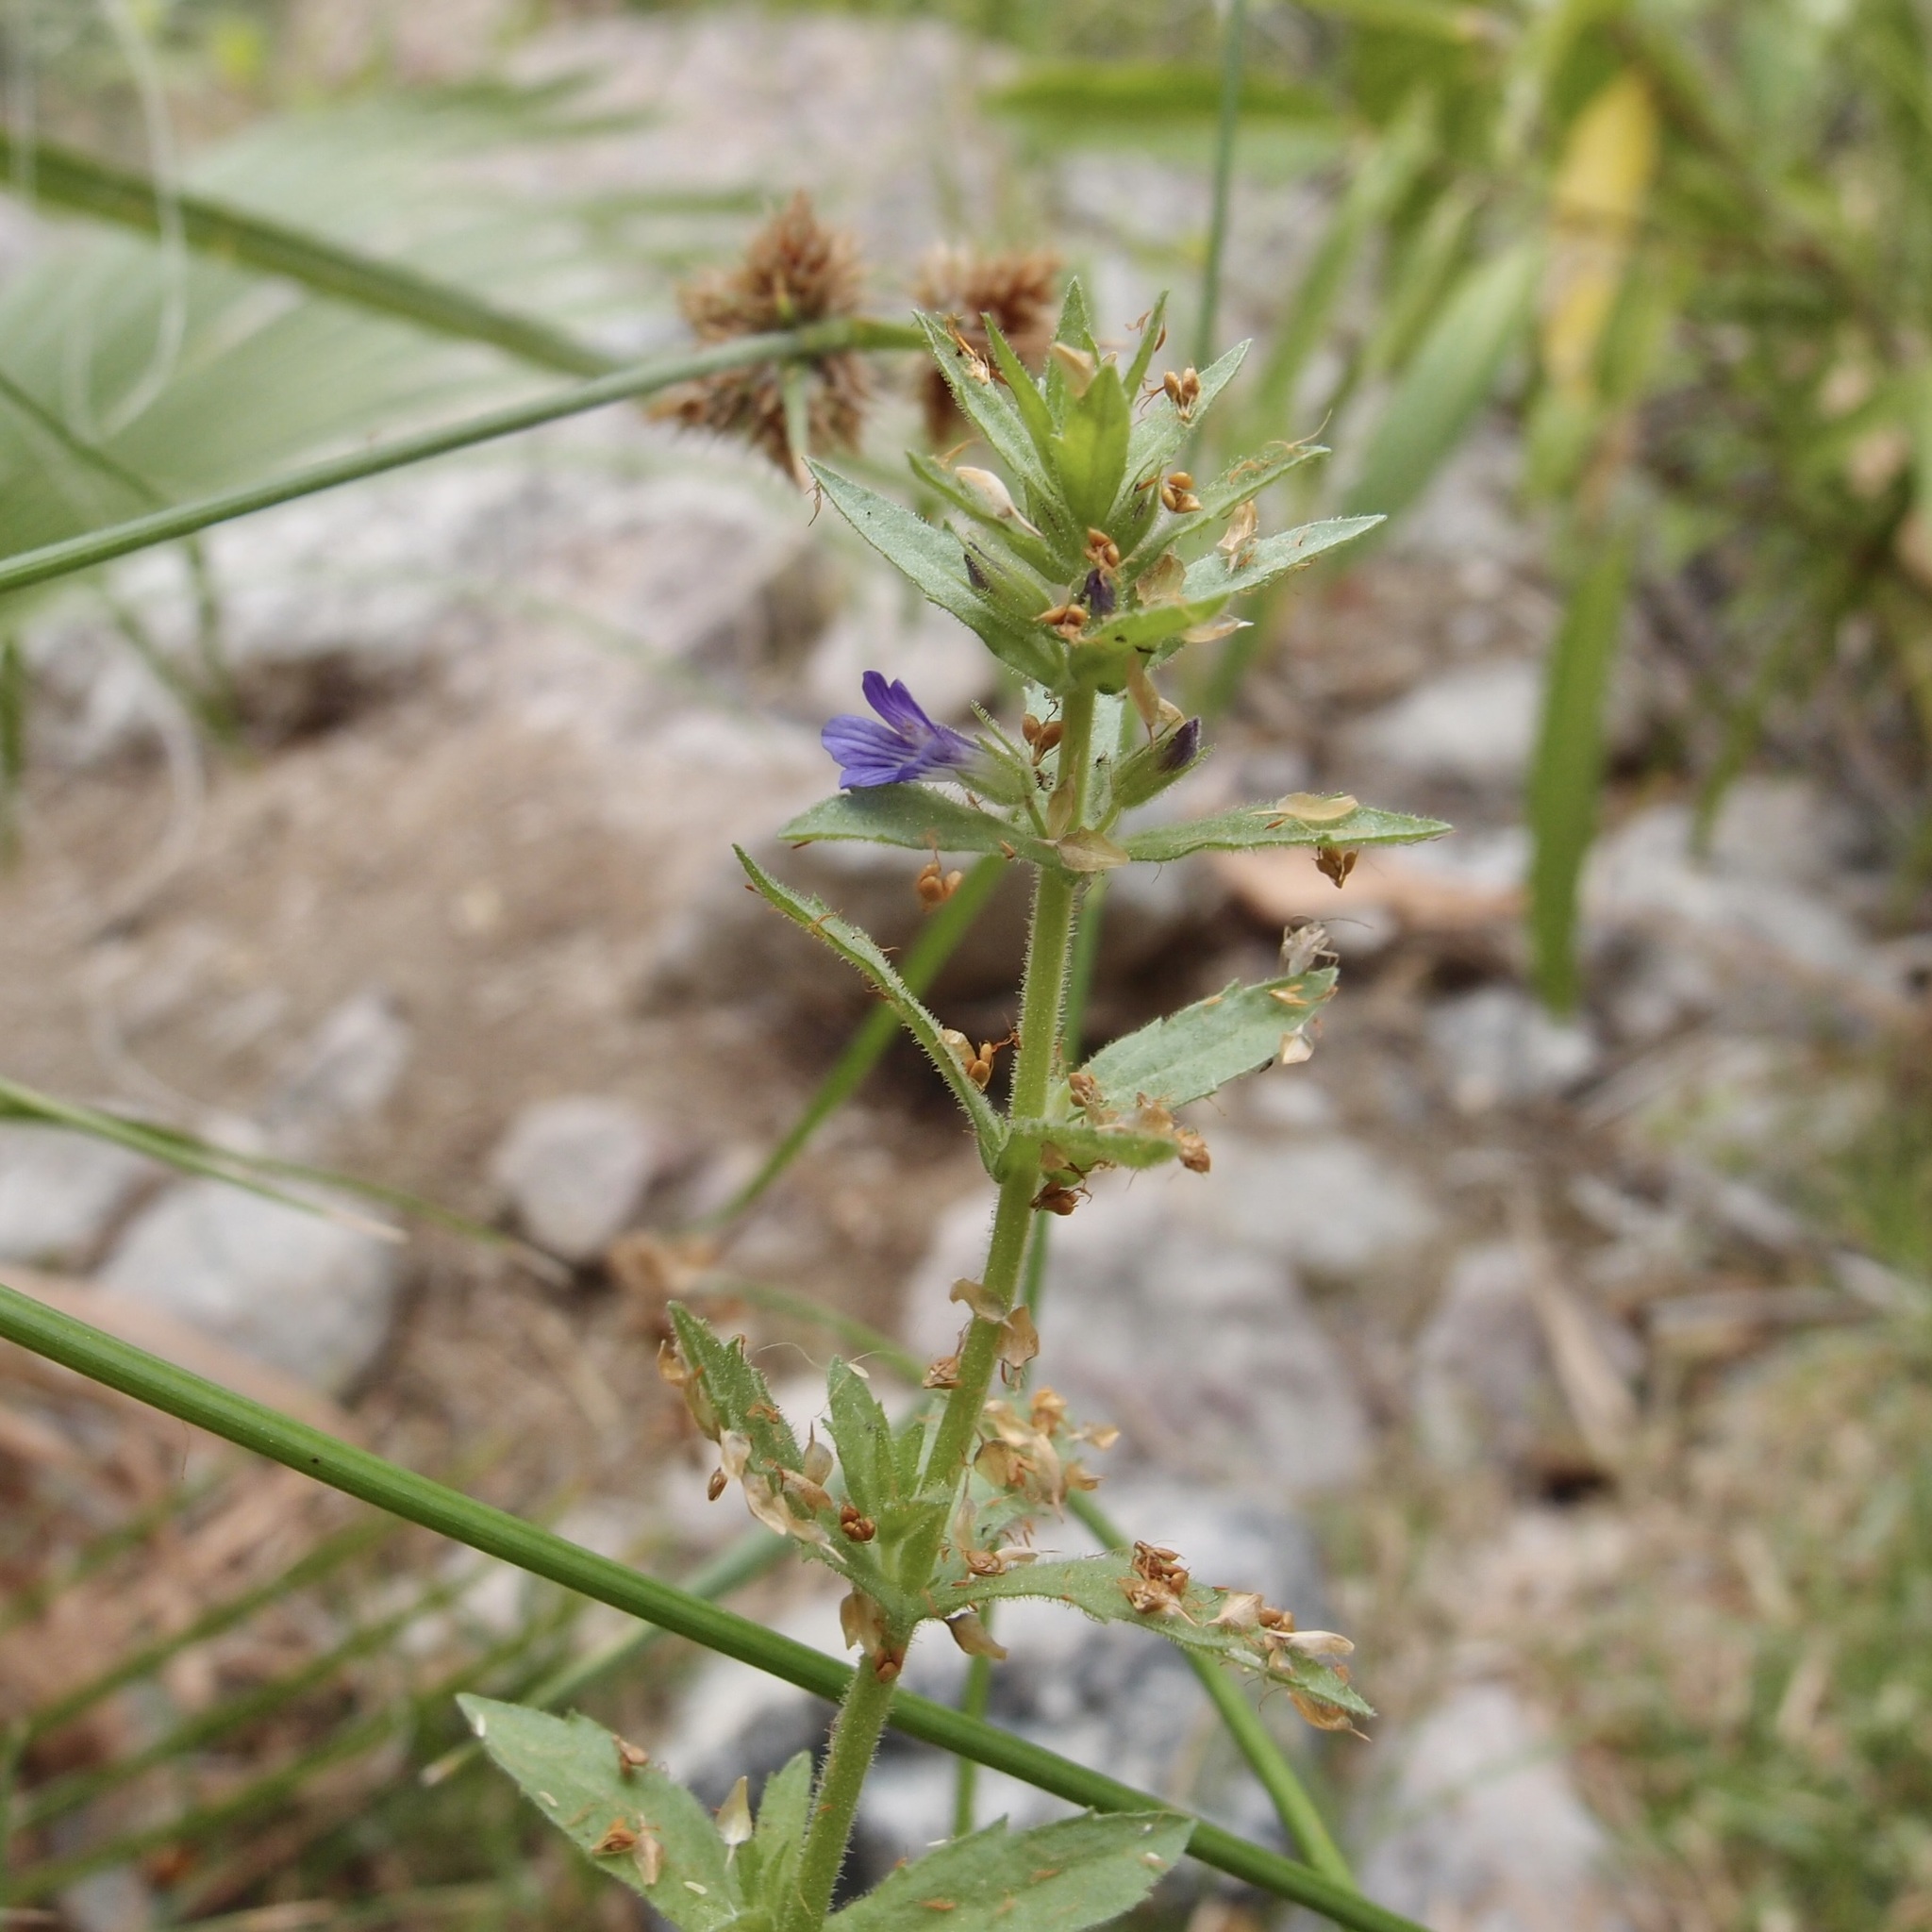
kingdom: Plantae
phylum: Tracheophyta
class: Magnoliopsida
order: Lamiales
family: Plantaginaceae
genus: Stemodia
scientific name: Stemodia durantifolia
